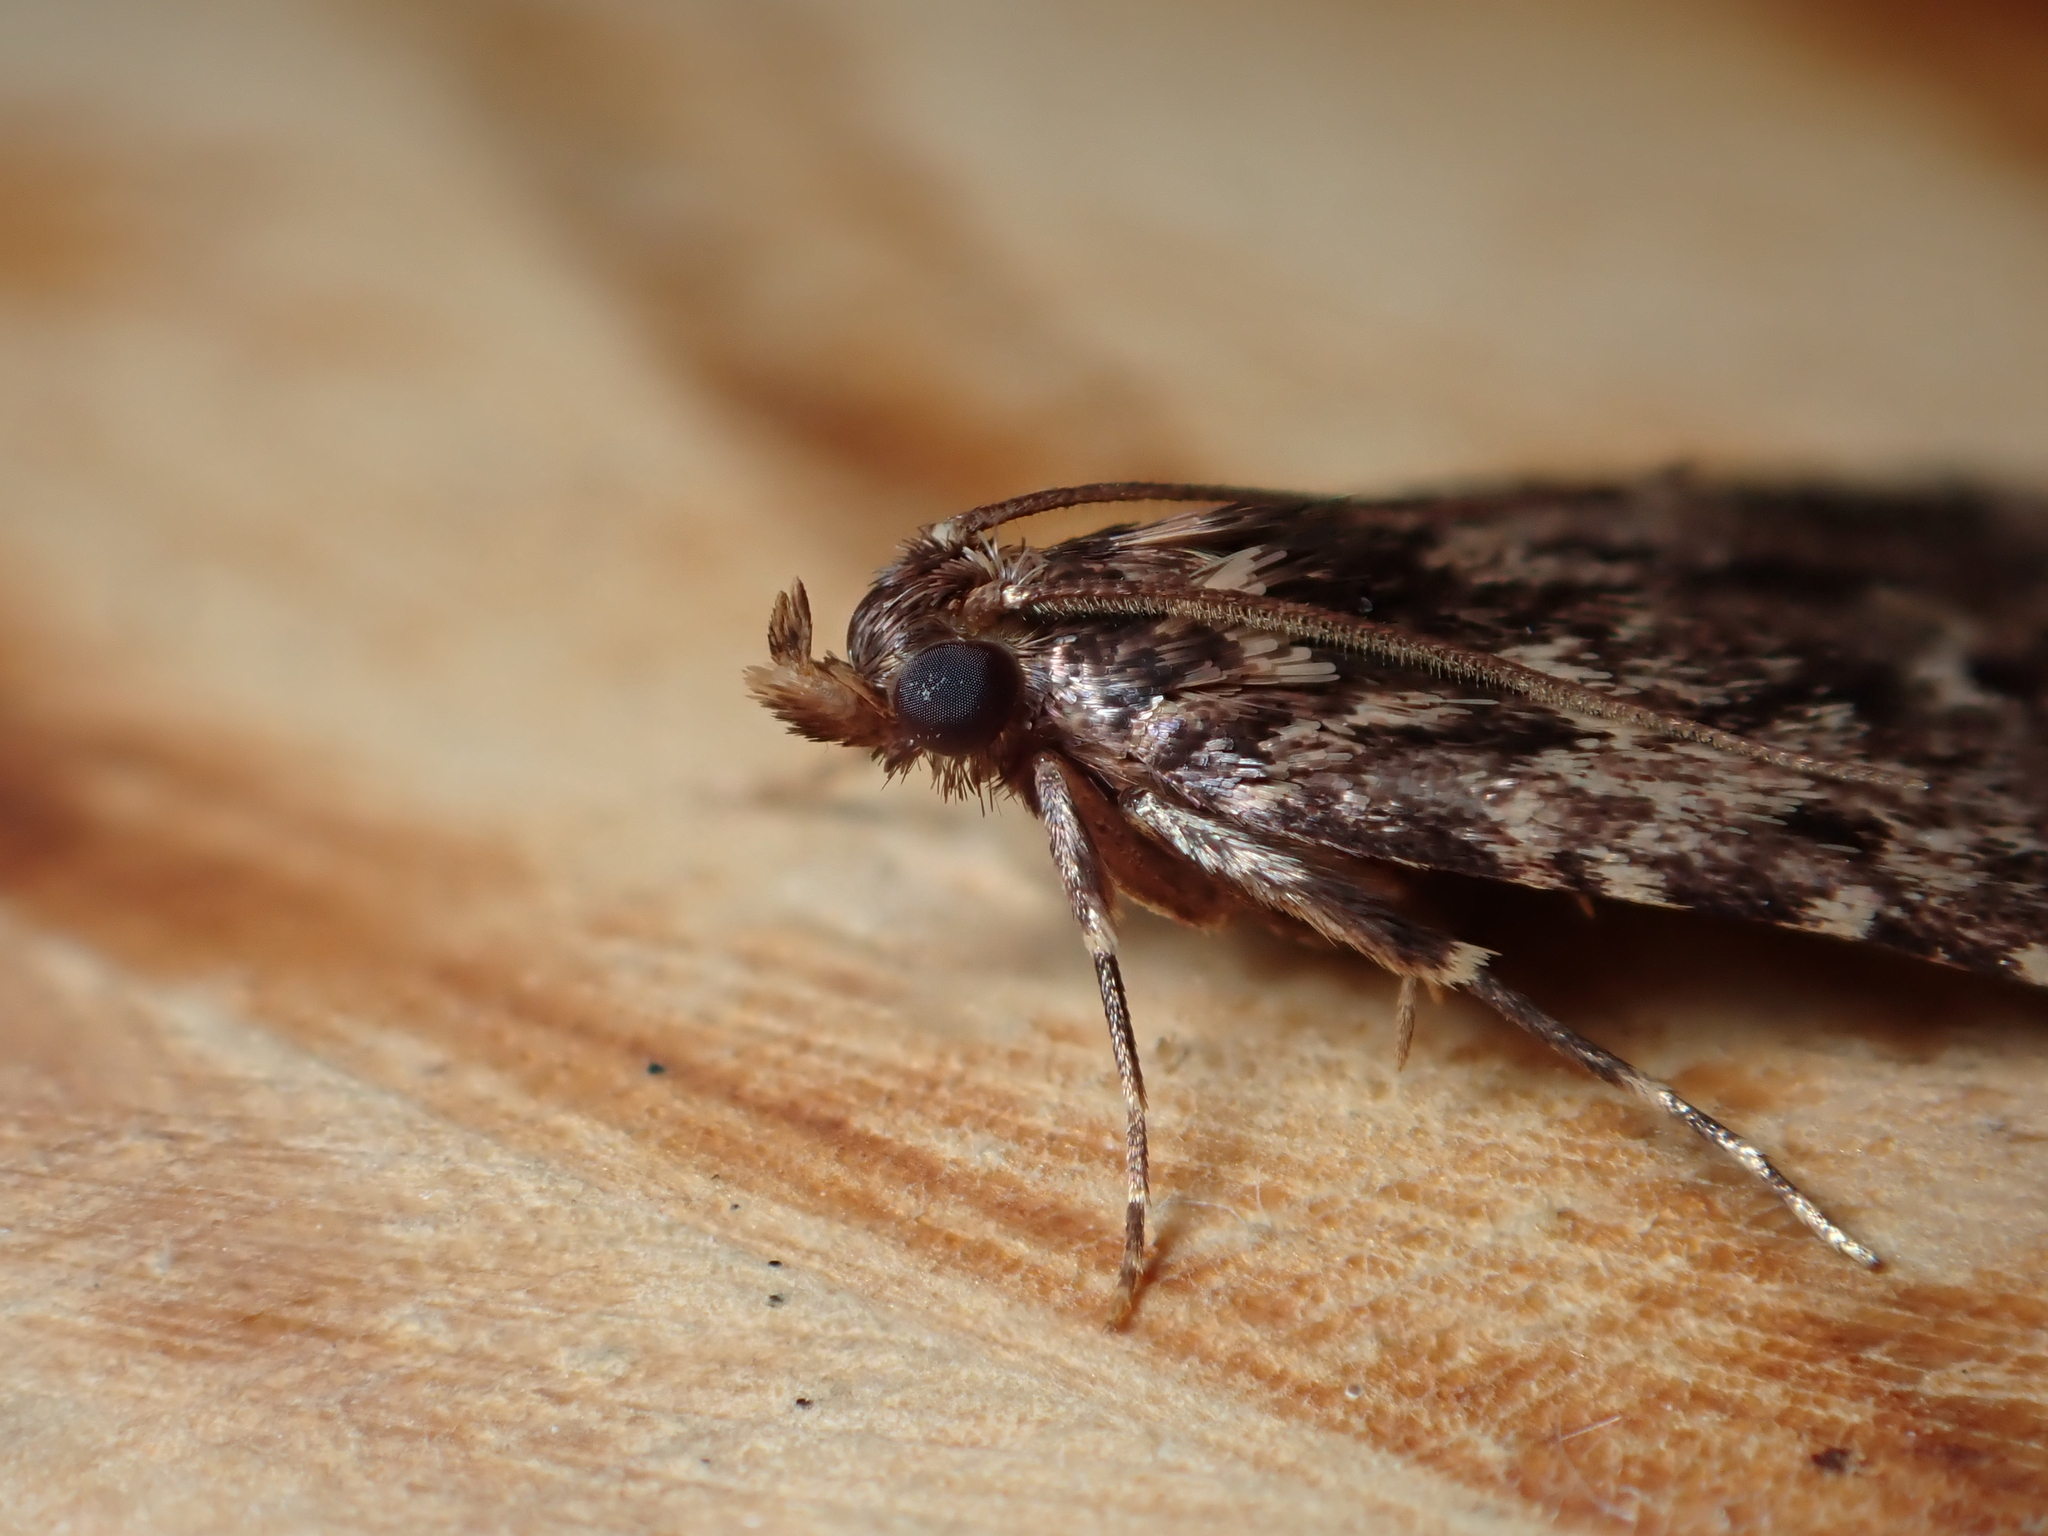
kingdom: Animalia
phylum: Arthropoda
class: Insecta
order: Lepidoptera
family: Pyralidae
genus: Aglossa
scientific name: Aglossa caprealis
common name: Small tabby
